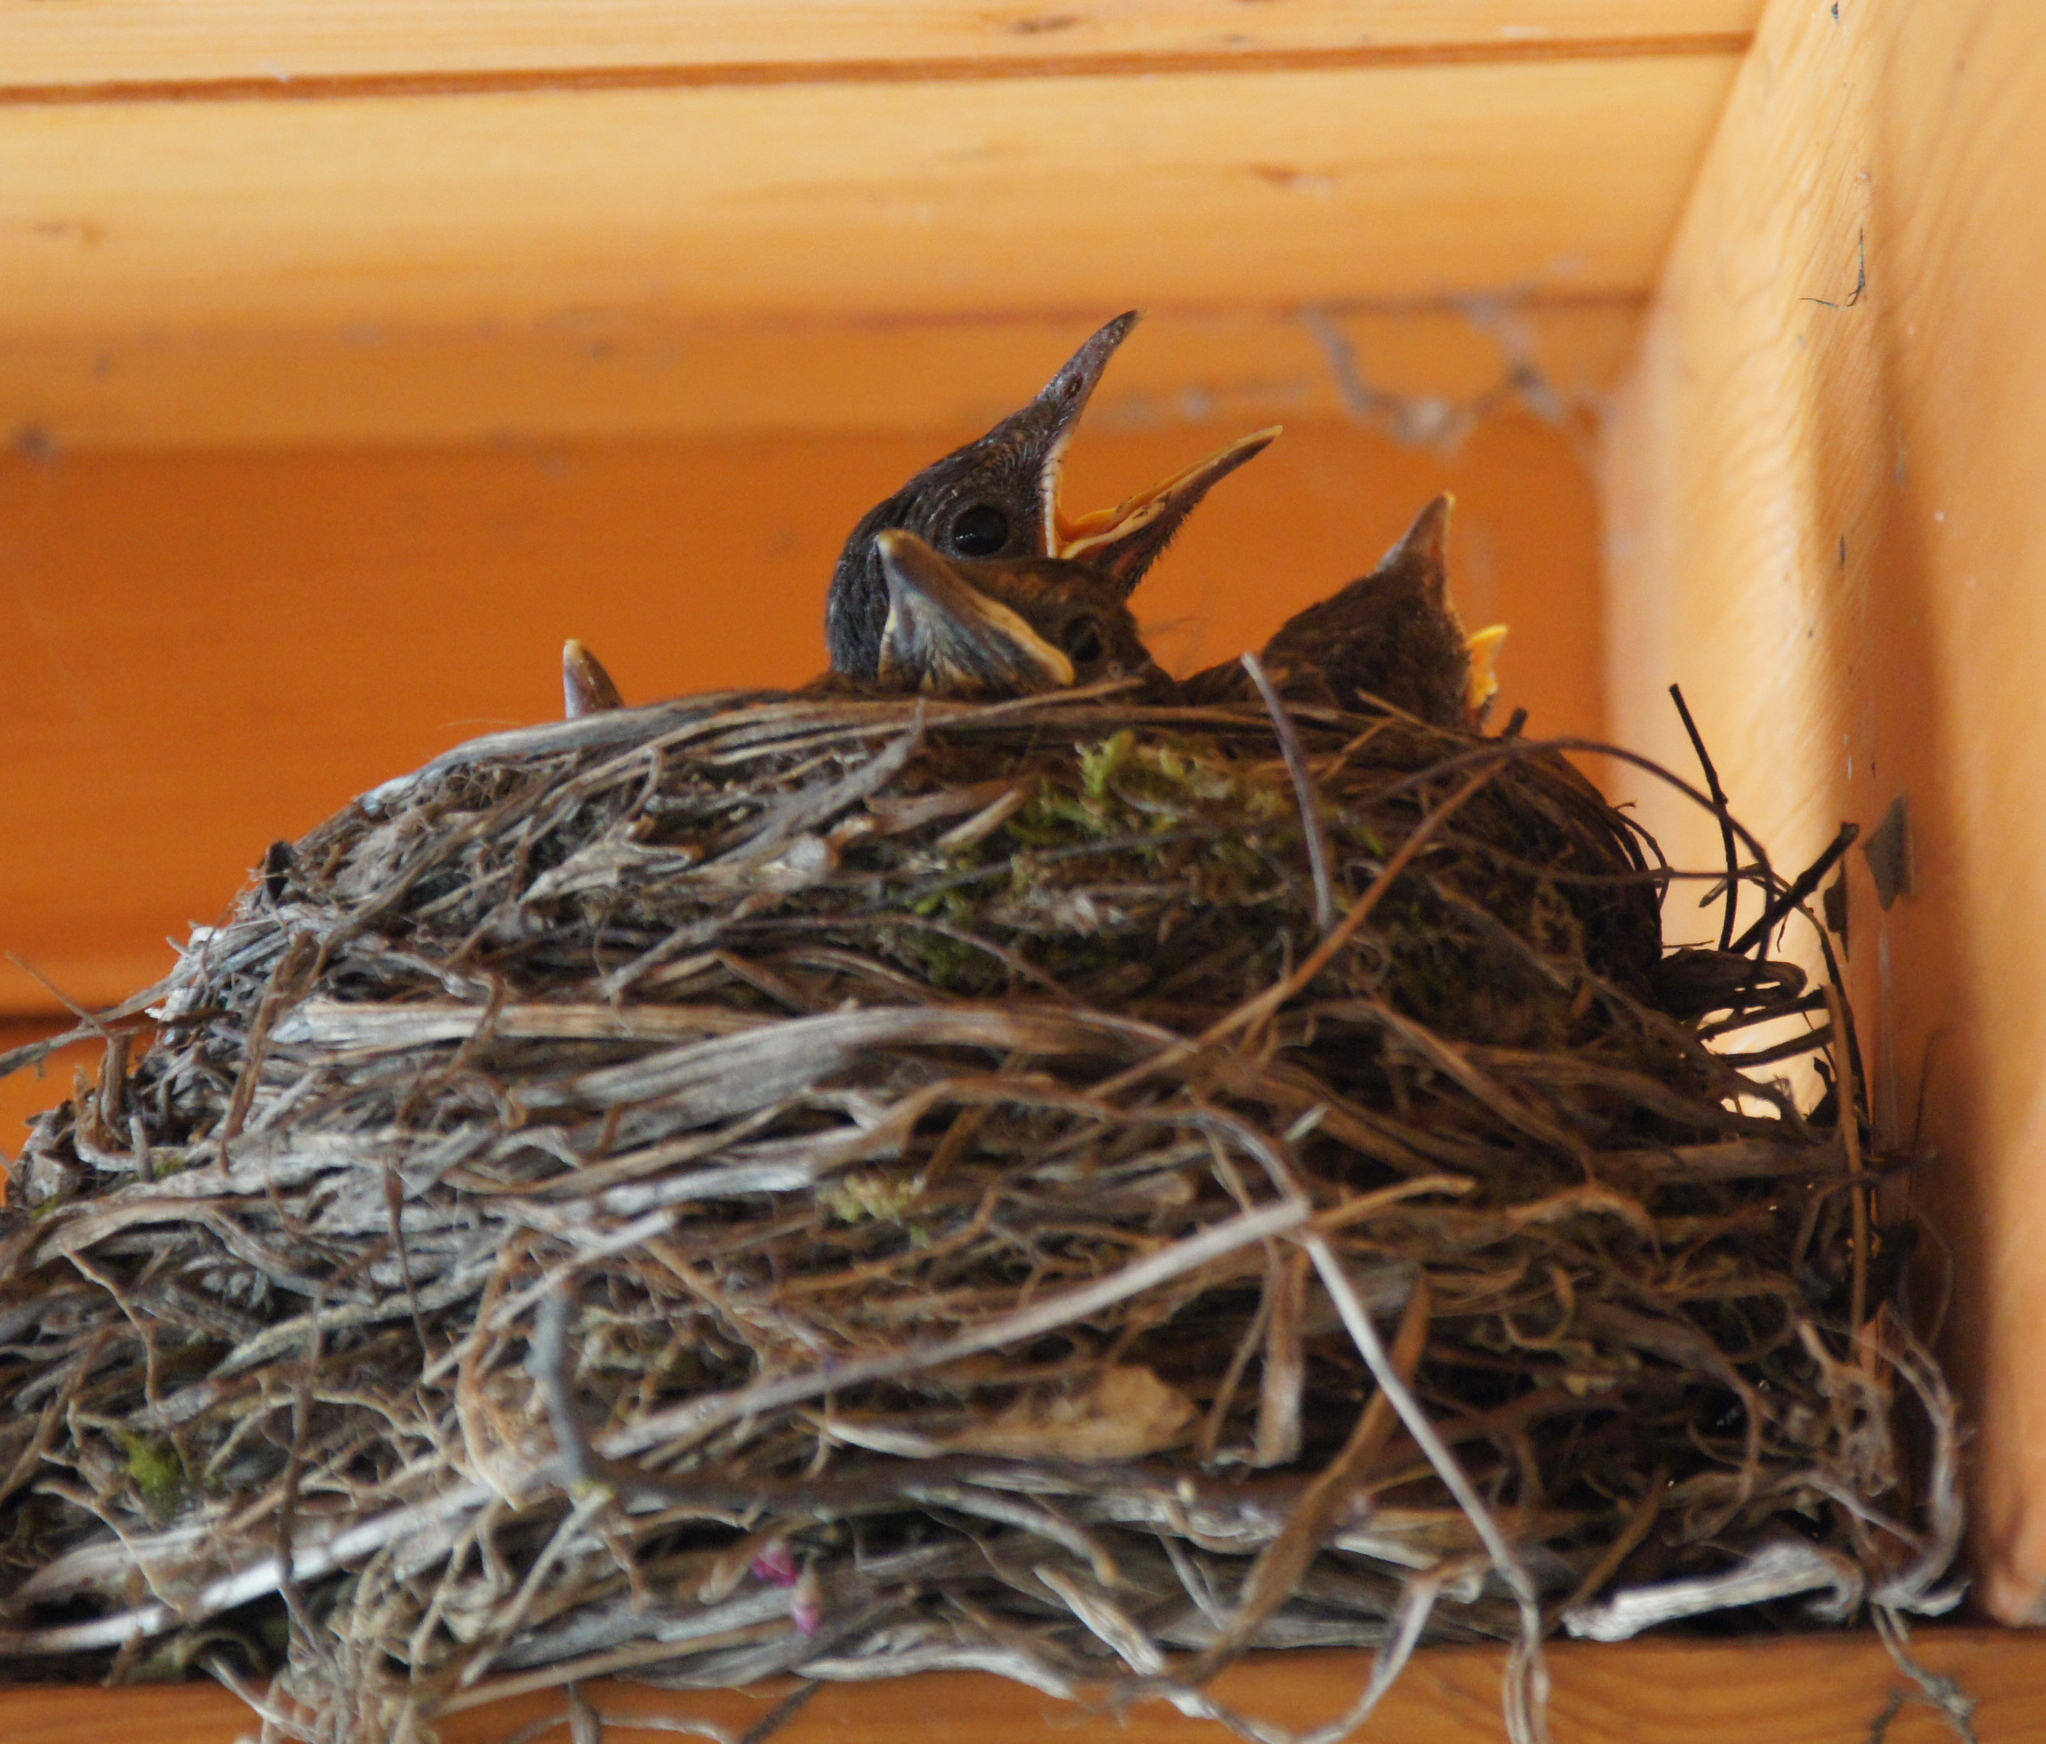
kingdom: Animalia
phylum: Chordata
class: Aves
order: Passeriformes
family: Turdidae
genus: Turdus
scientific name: Turdus merula
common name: Common blackbird
